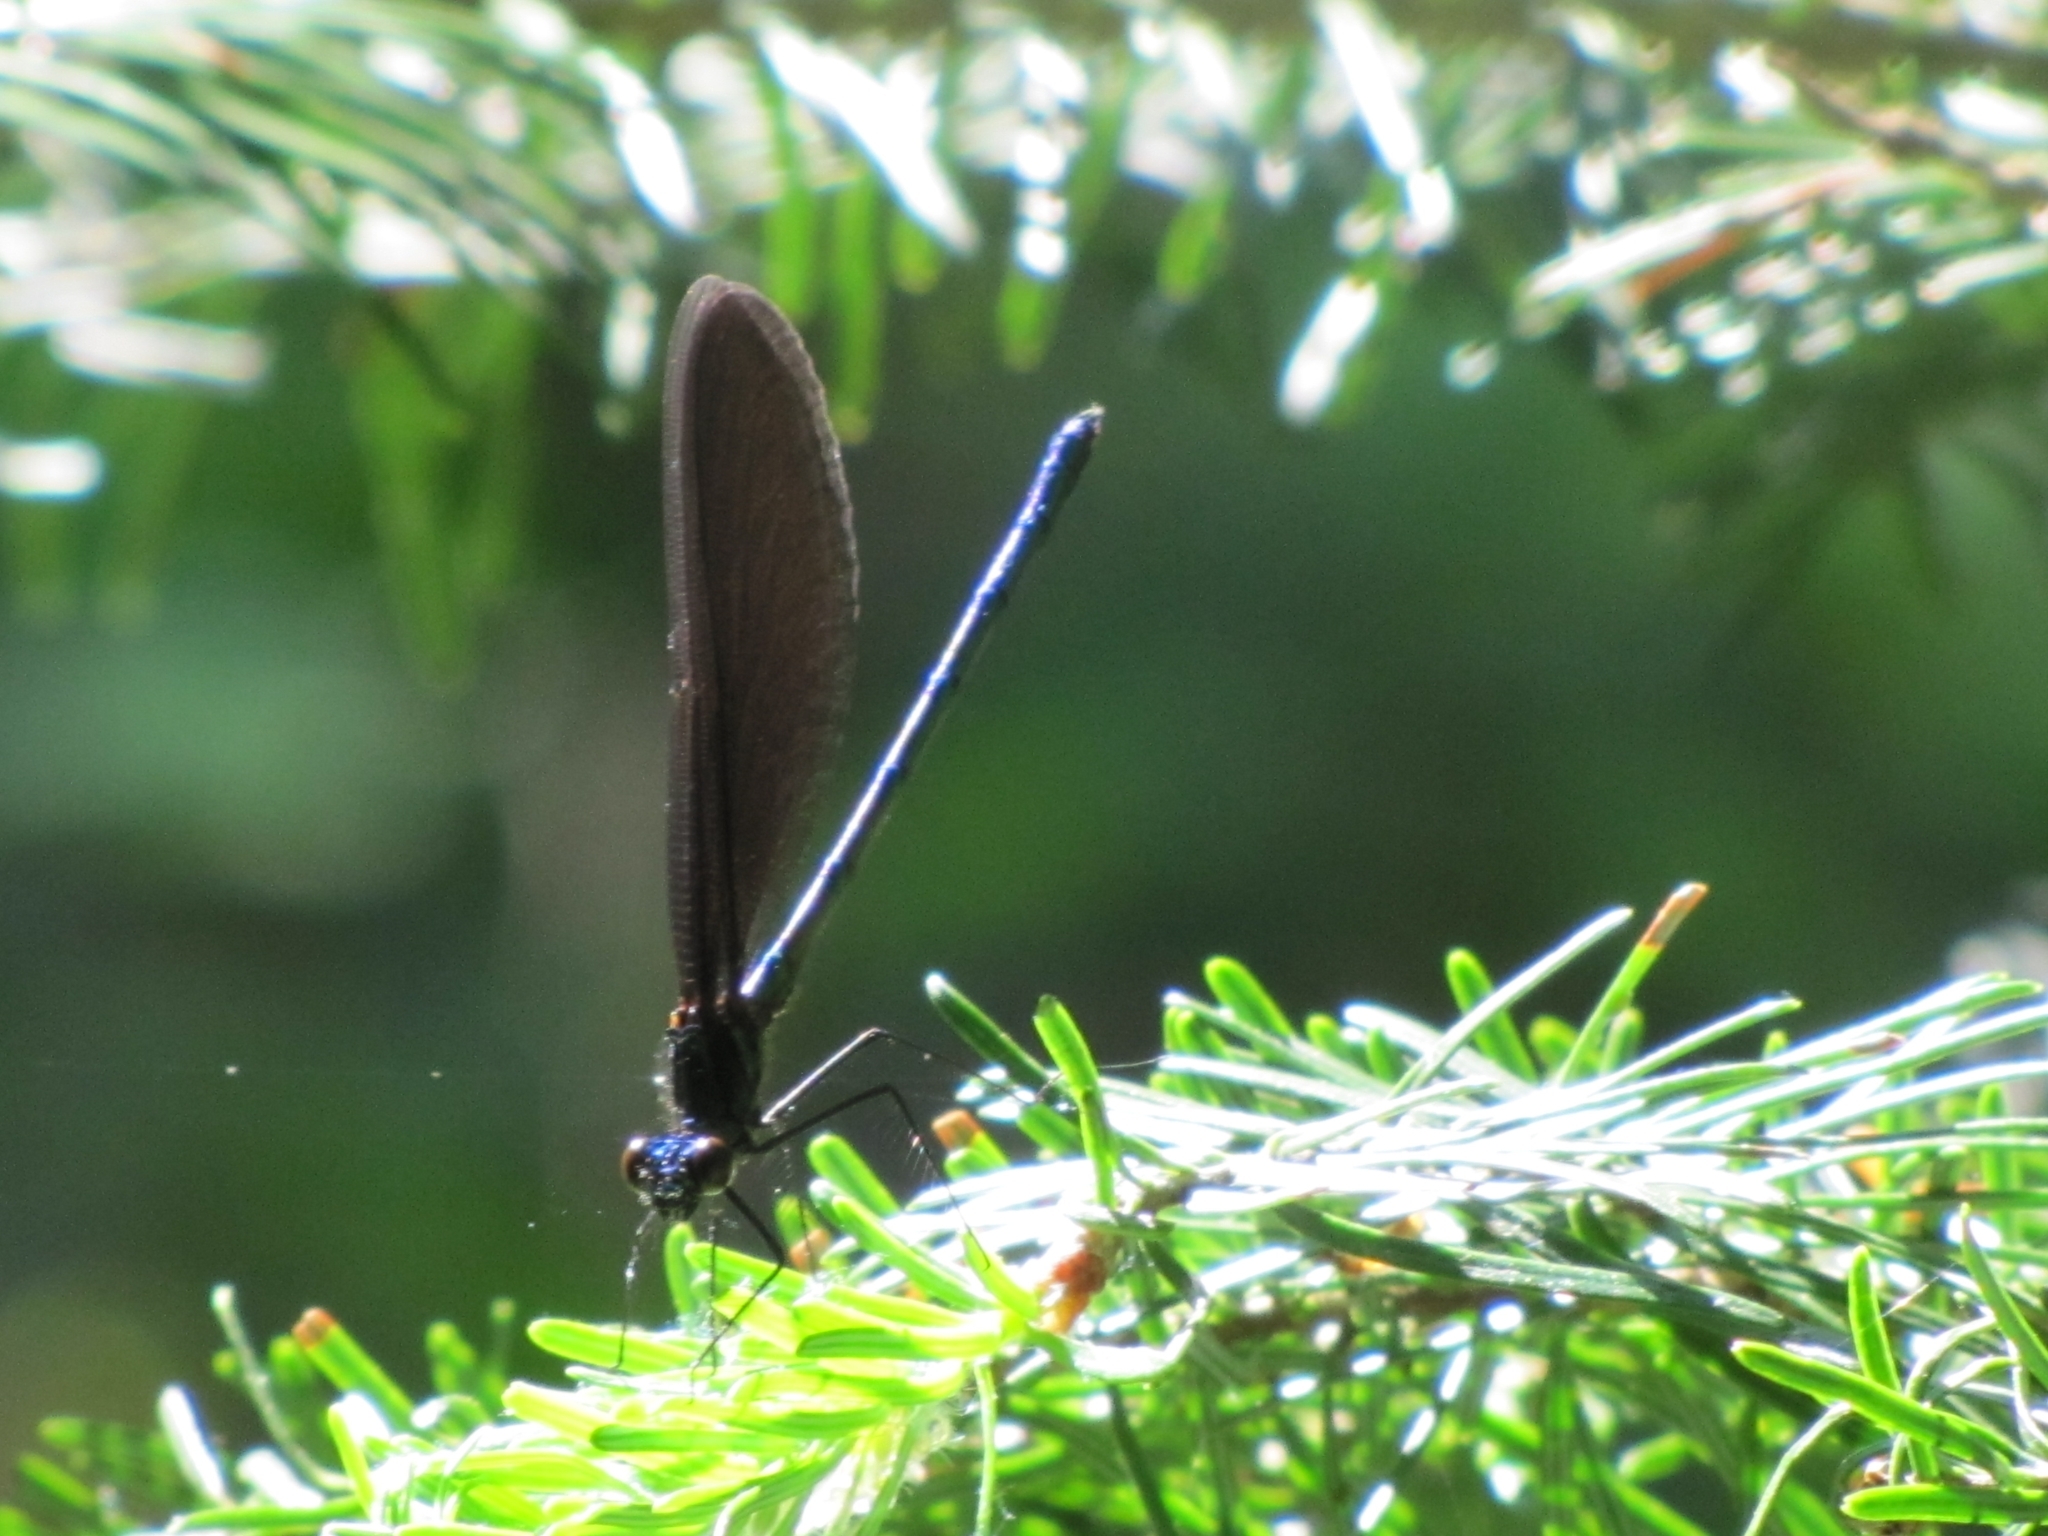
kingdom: Animalia
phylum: Arthropoda
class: Insecta
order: Odonata
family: Calopterygidae
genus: Calopteryx
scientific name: Calopteryx maculata
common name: Ebony jewelwing
